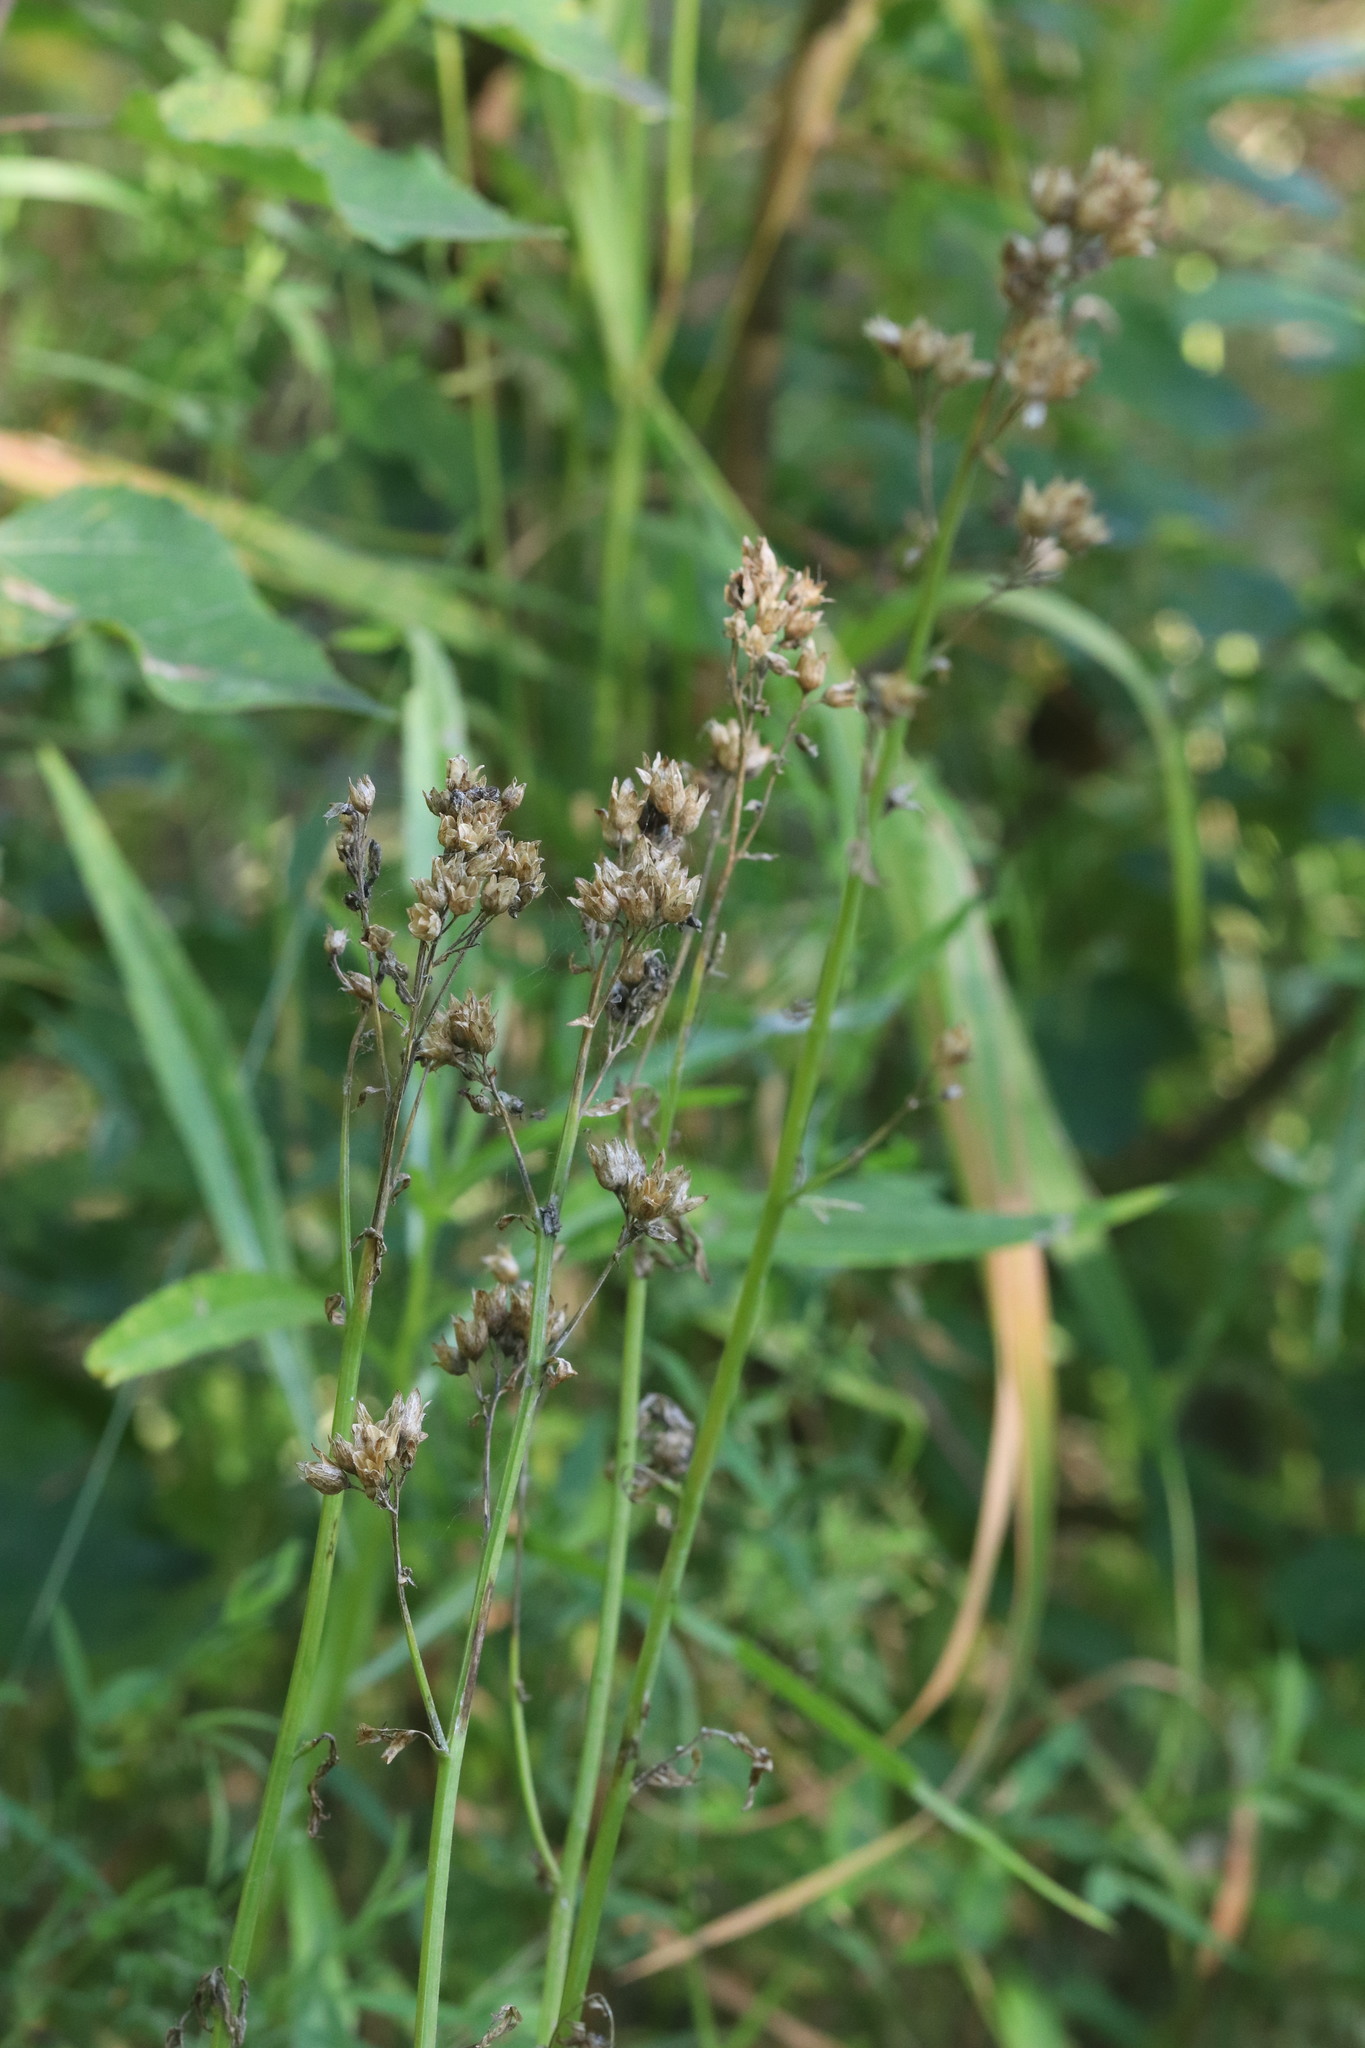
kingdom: Plantae
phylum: Tracheophyta
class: Magnoliopsida
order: Ericales
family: Polemoniaceae
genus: Polemonium
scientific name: Polemonium caeruleum
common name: Jacob's-ladder
